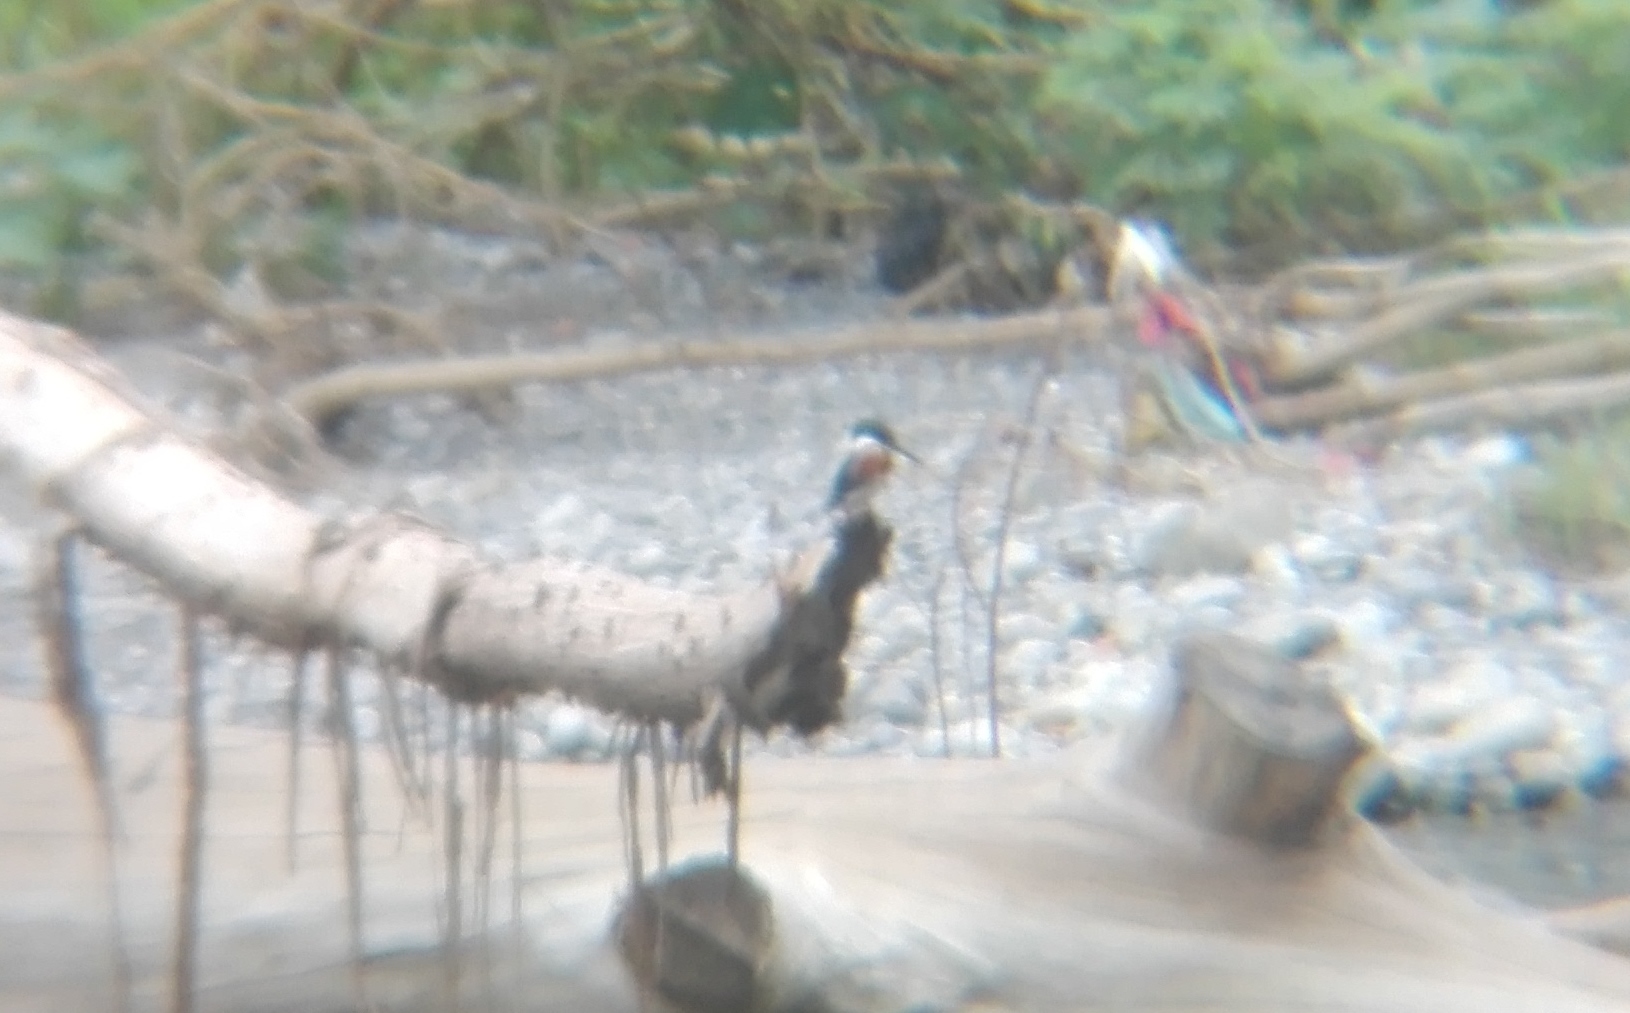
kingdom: Animalia
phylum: Chordata
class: Aves
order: Coraciiformes
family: Alcedinidae
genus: Chloroceryle
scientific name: Chloroceryle americana
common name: Green kingfisher
